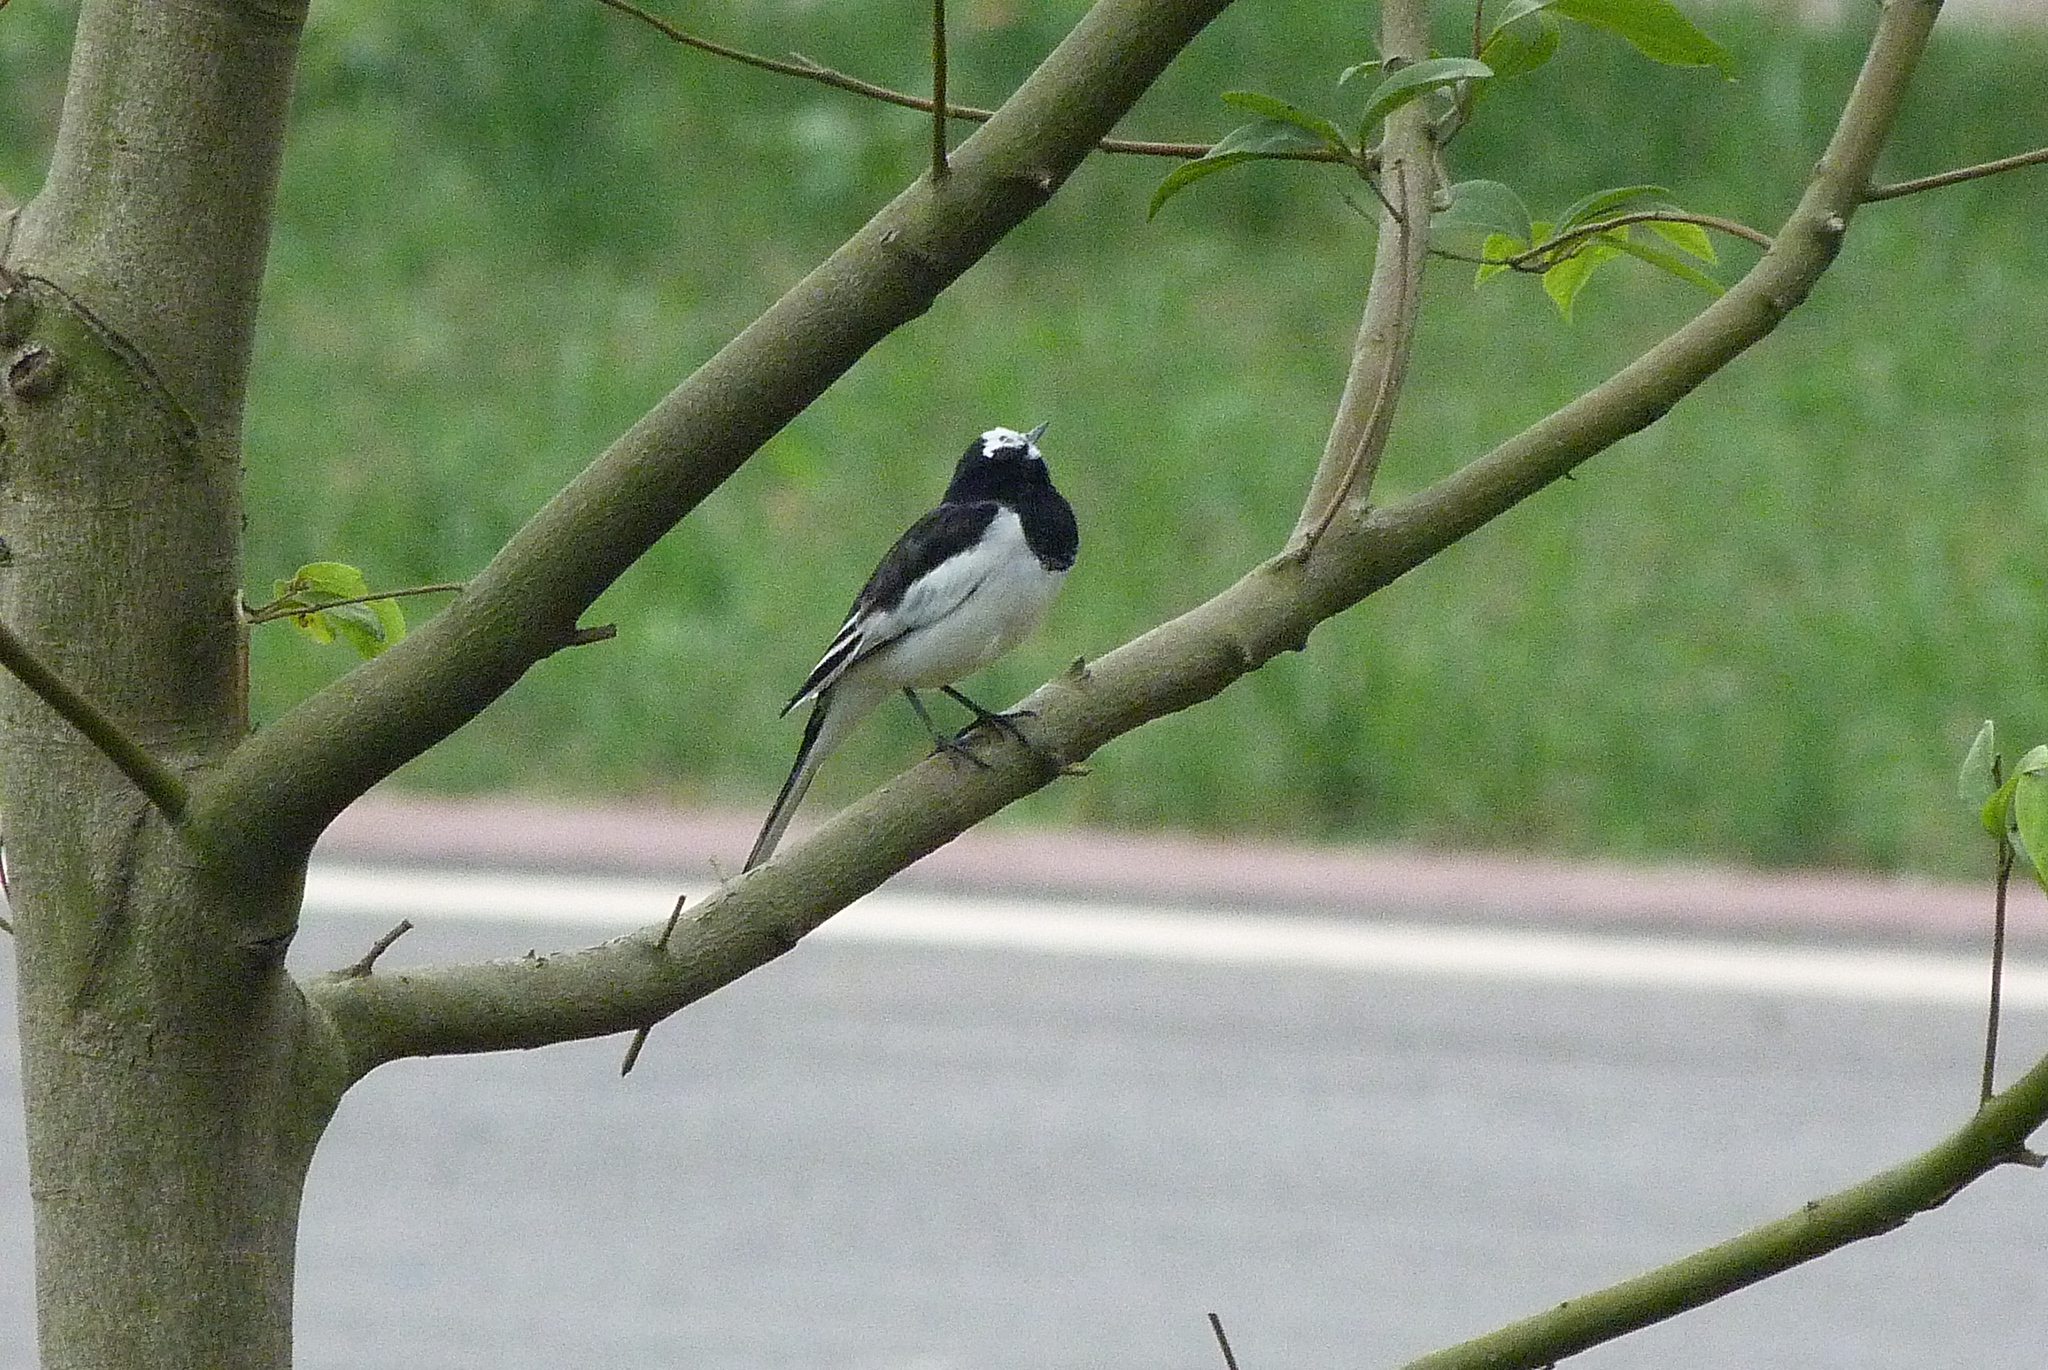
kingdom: Animalia
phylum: Chordata
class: Aves
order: Passeriformes
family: Motacillidae
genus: Motacilla
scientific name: Motacilla alba
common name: White wagtail
